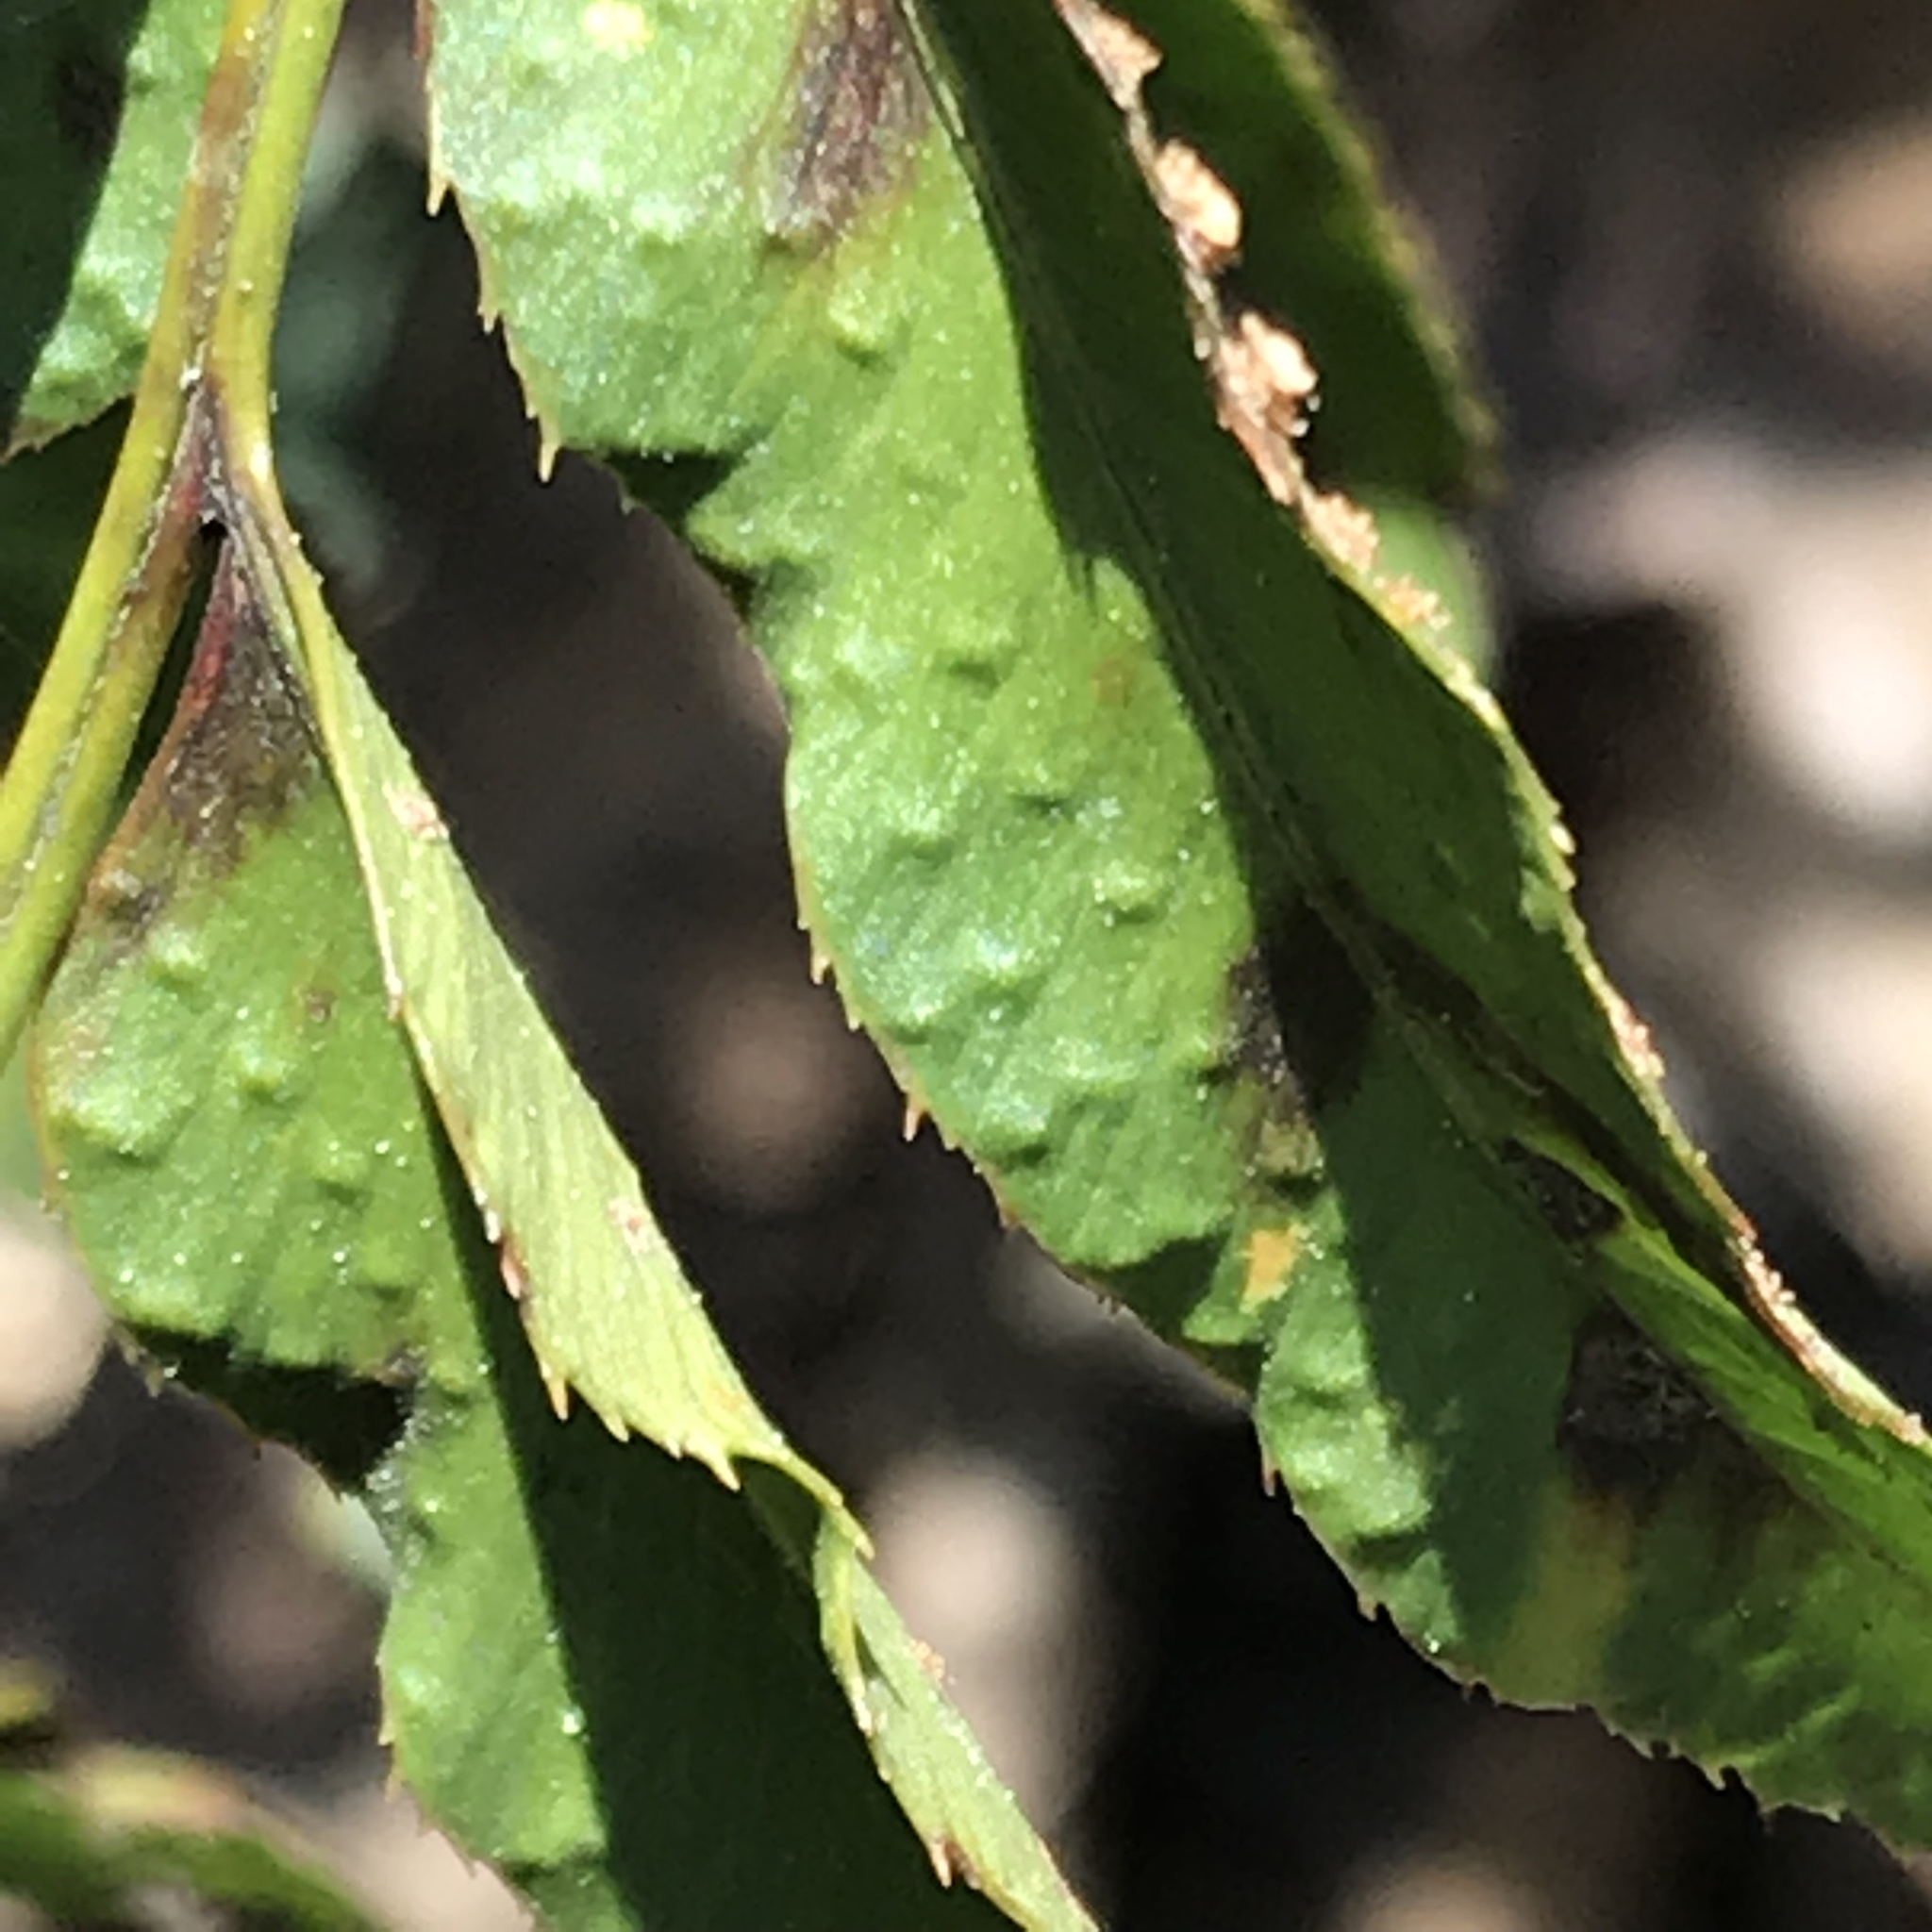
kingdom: Plantae
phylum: Tracheophyta
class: Polypodiopsida
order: Polypodiales
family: Dryopteridaceae
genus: Phanerophlebia
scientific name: Phanerophlebia umbonata
